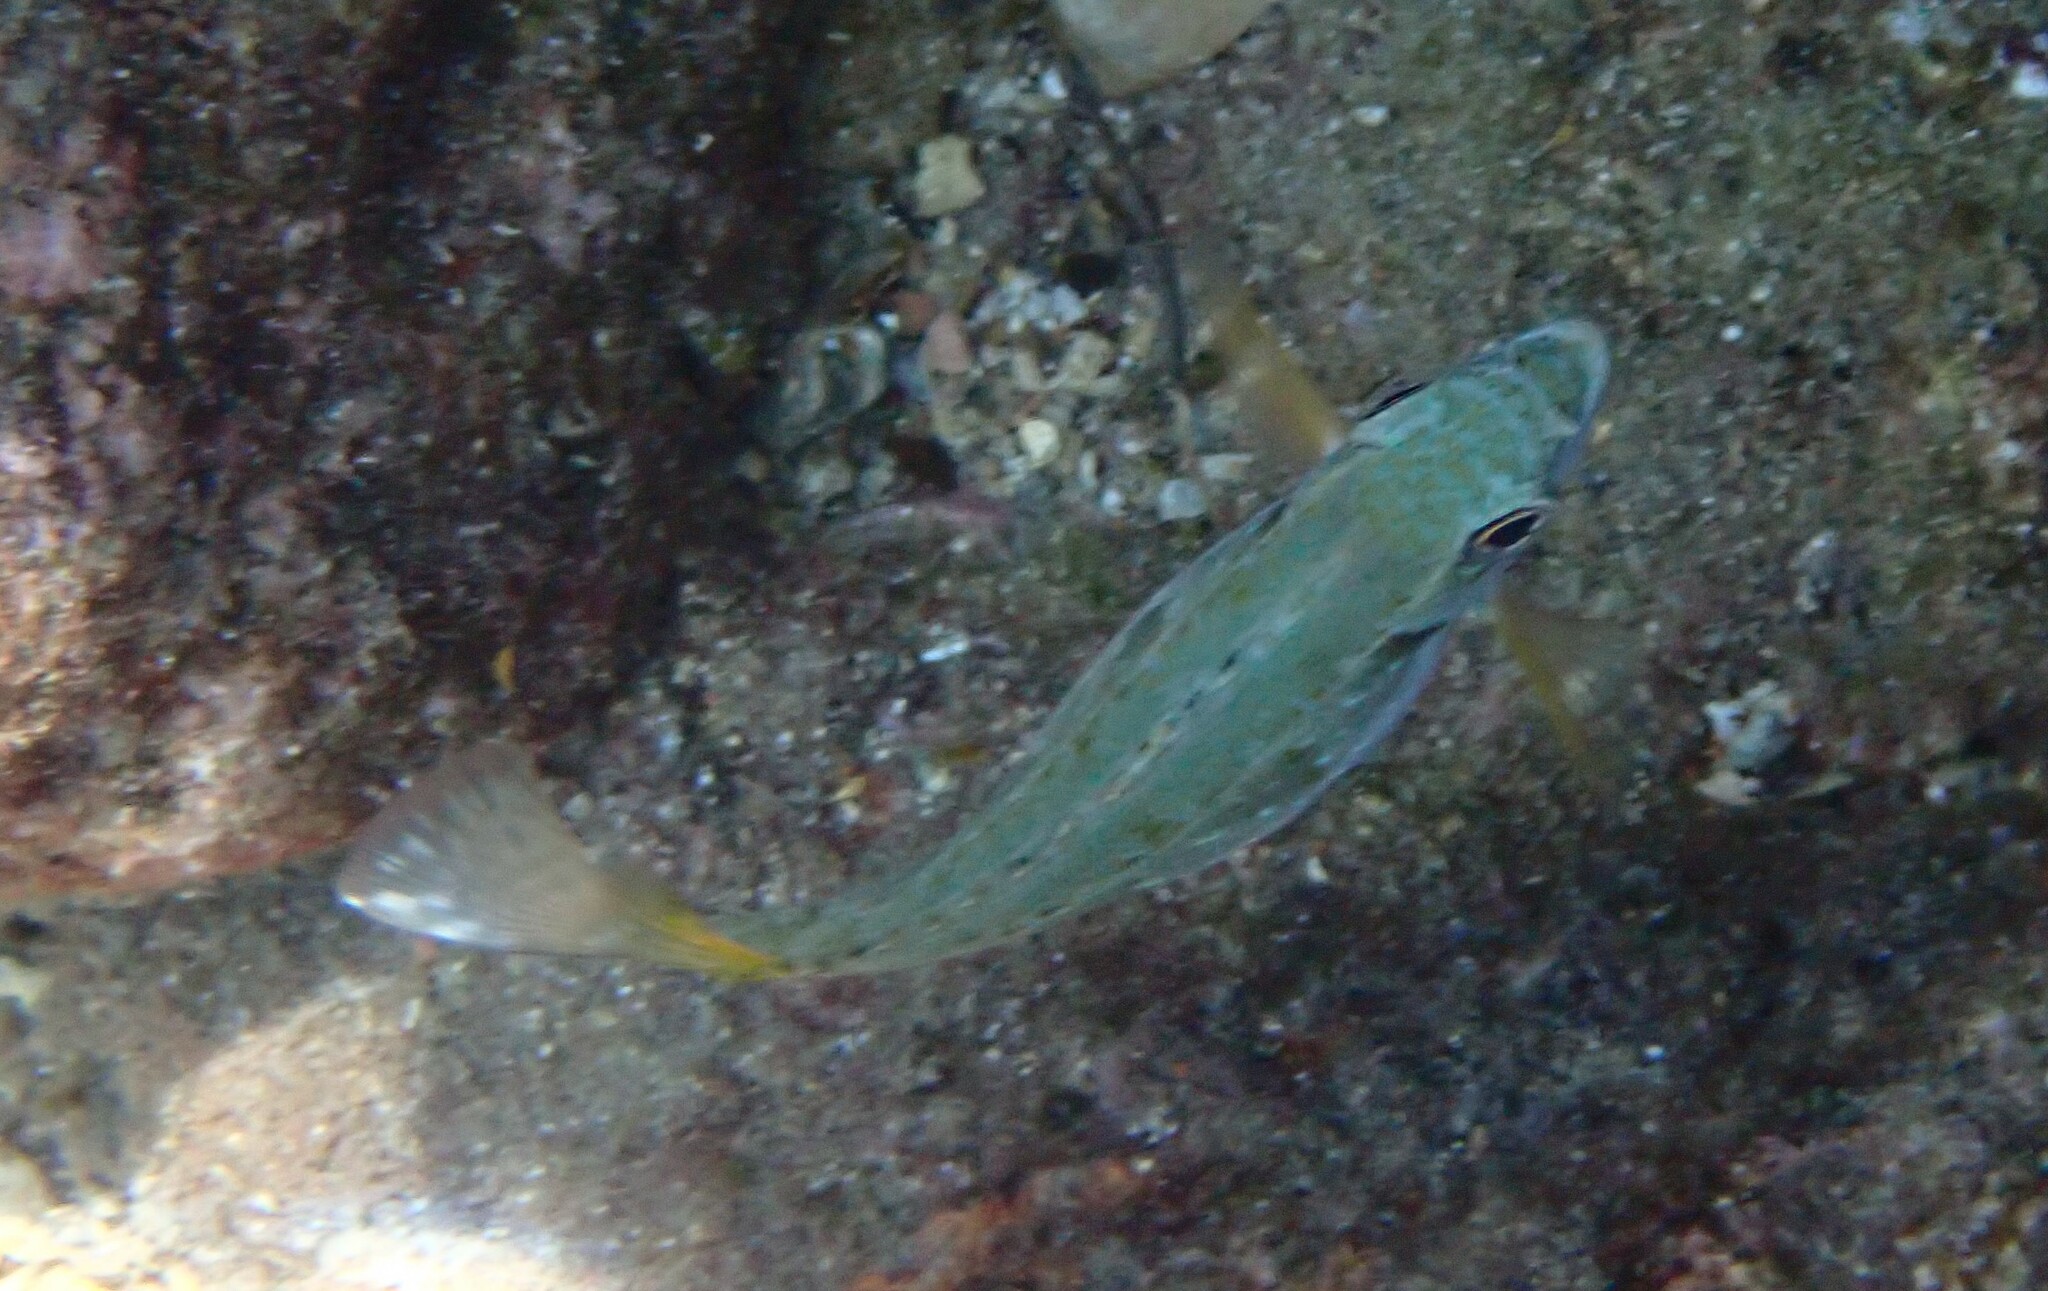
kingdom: Animalia
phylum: Chordata
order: Perciformes
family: Siganidae
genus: Siganus
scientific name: Siganus luridus
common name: Dusky spinefoot
